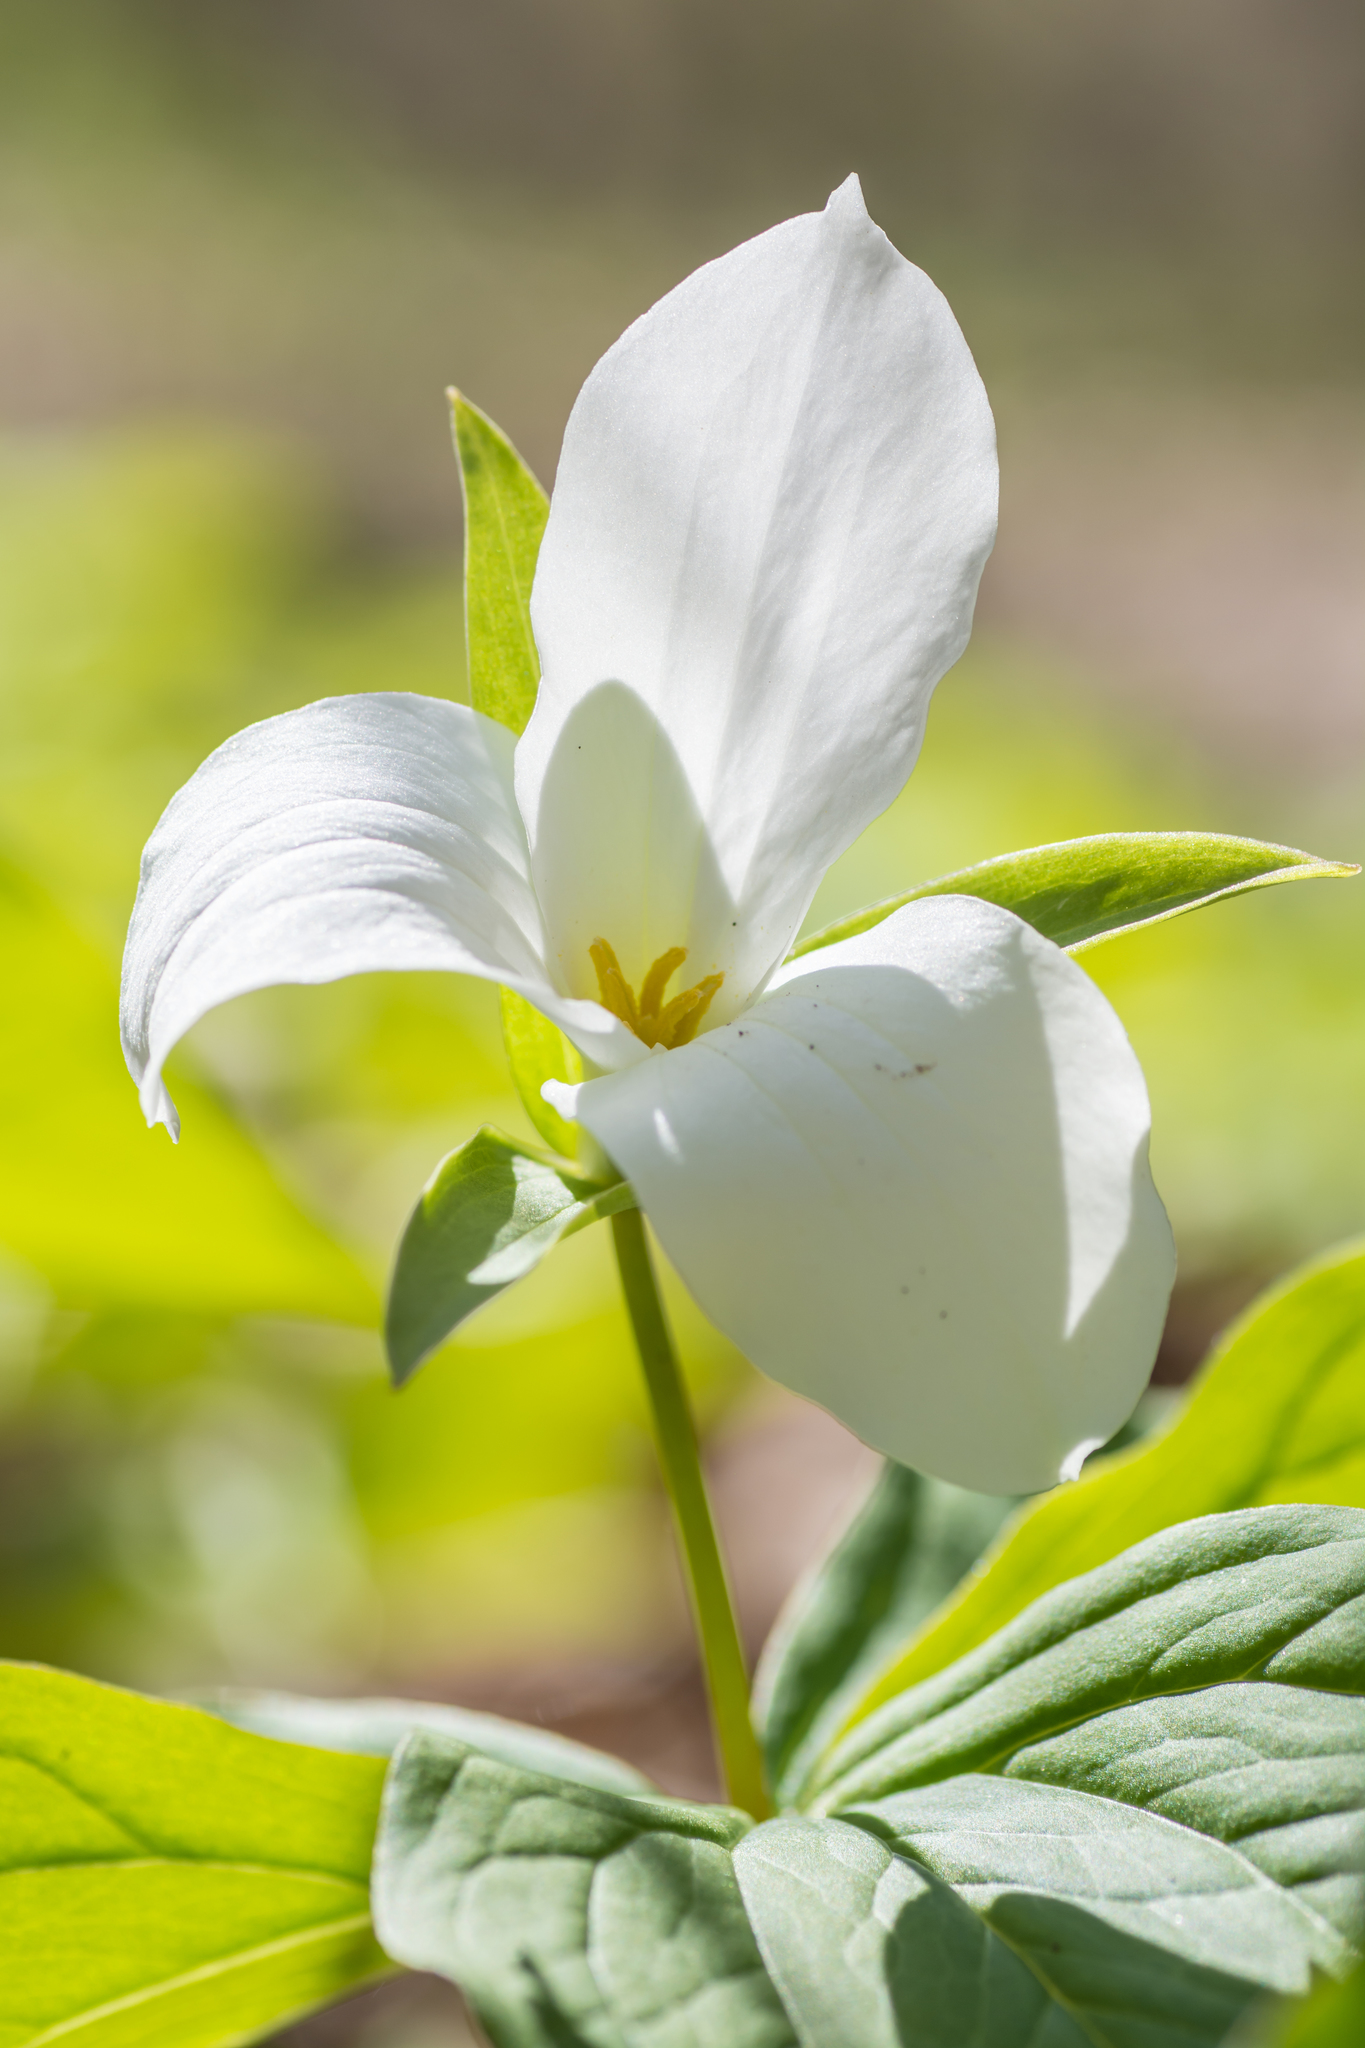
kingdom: Plantae
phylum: Tracheophyta
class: Liliopsida
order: Liliales
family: Melanthiaceae
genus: Trillium
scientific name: Trillium grandiflorum
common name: Great white trillium
